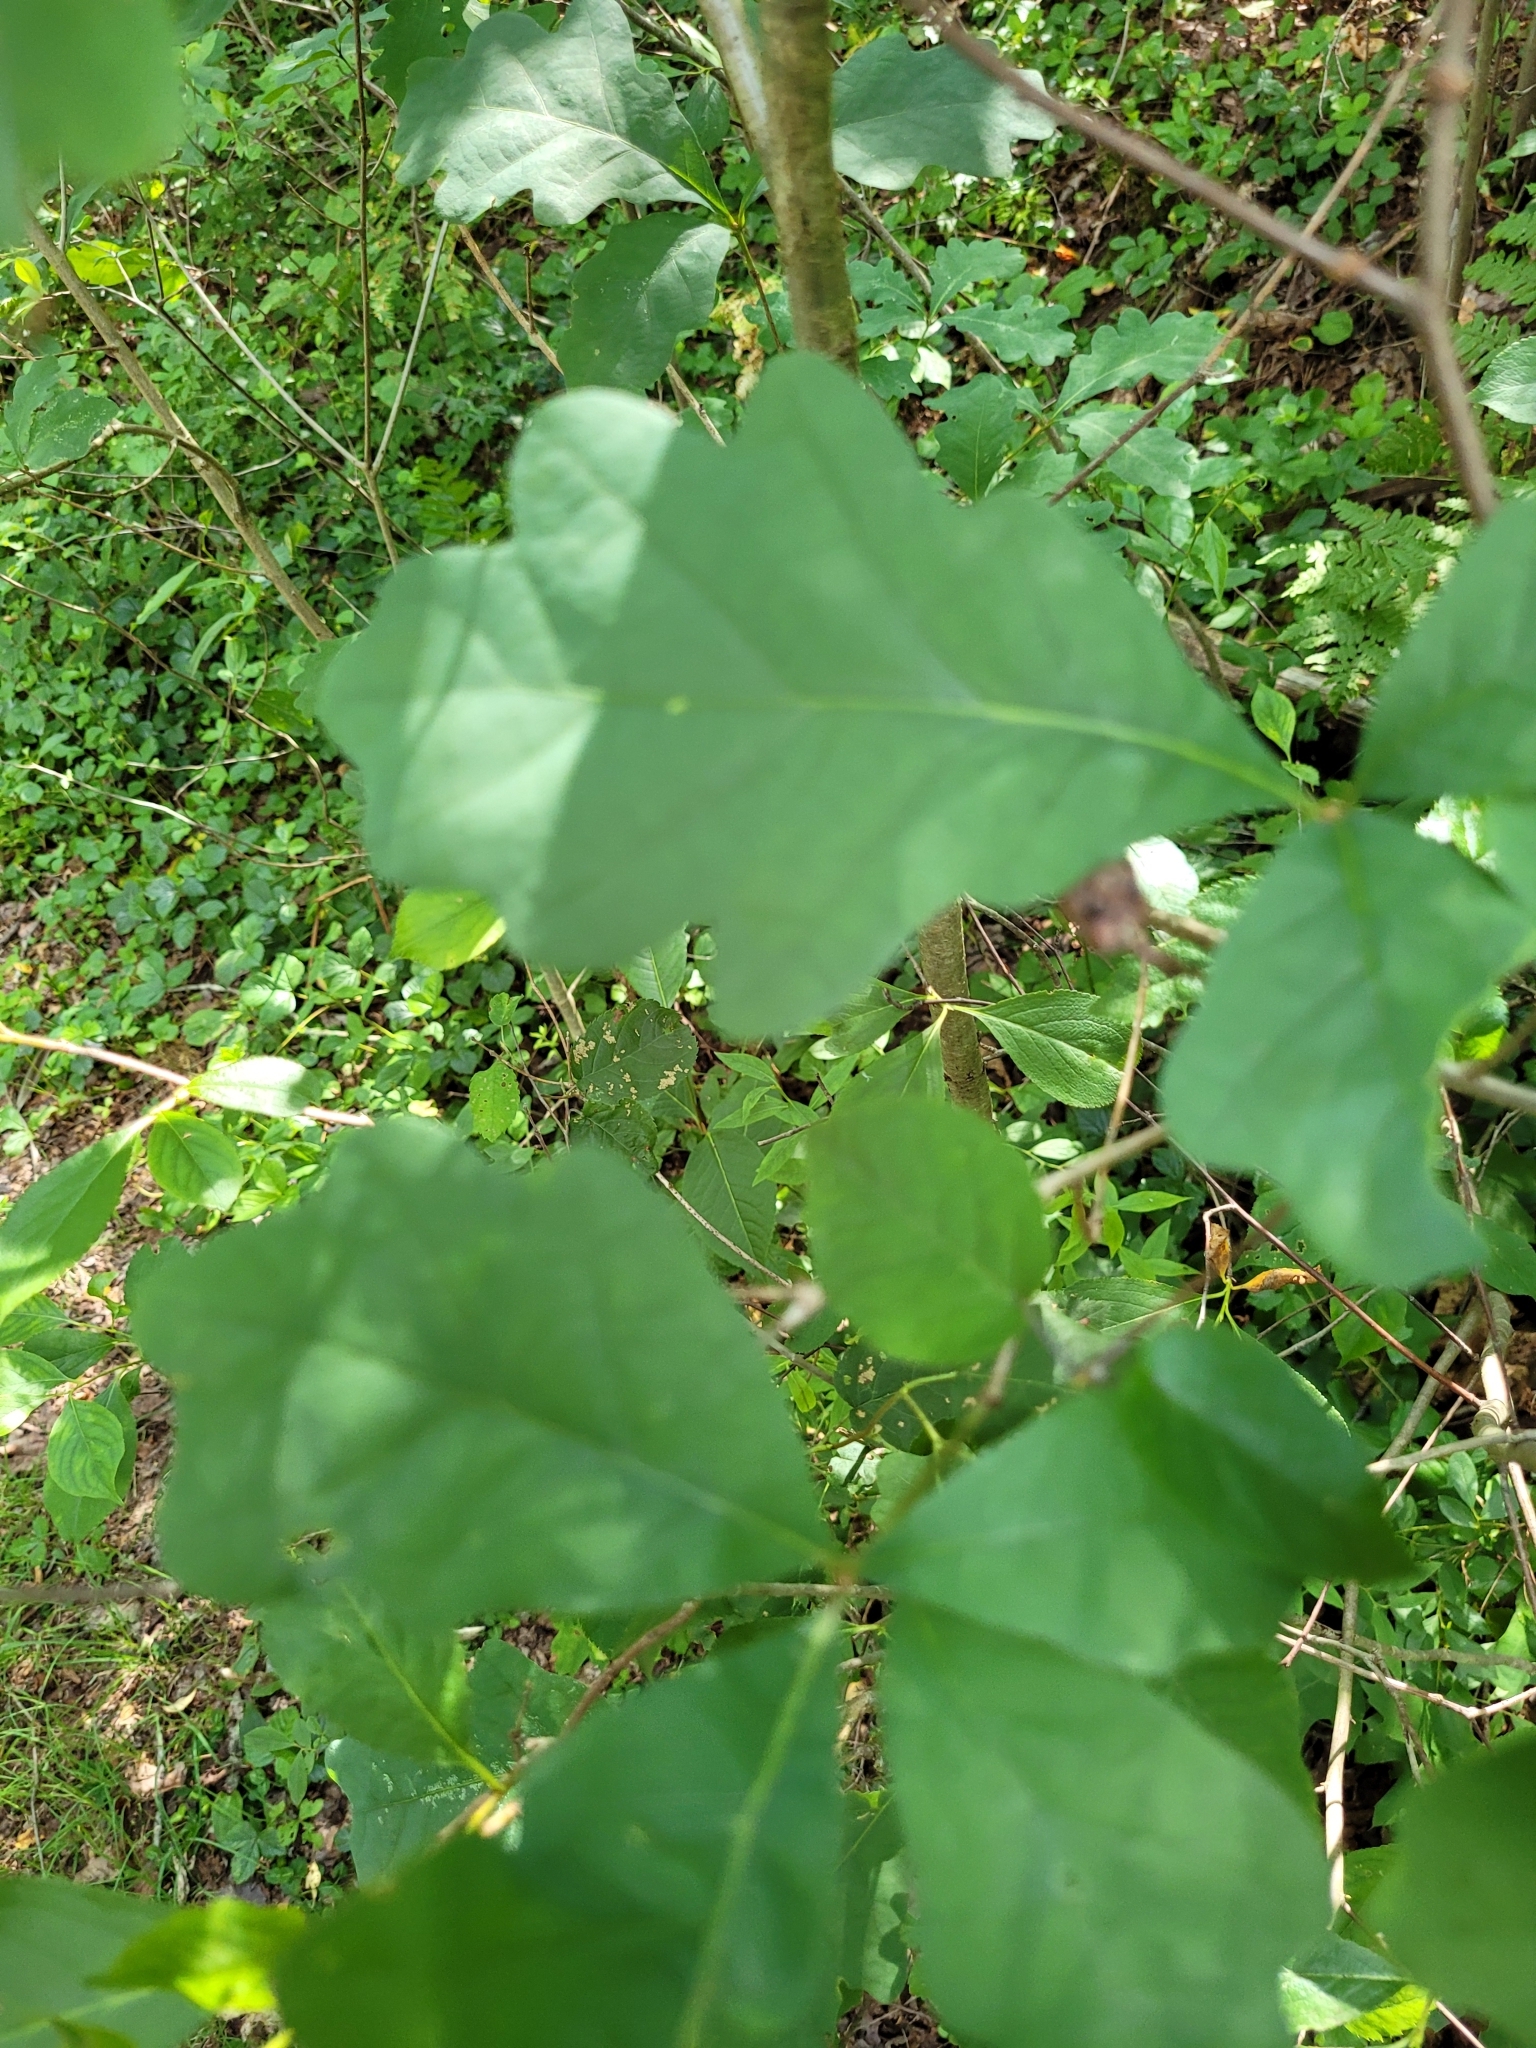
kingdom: Plantae
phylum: Tracheophyta
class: Magnoliopsida
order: Fagales
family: Fagaceae
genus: Quercus
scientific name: Quercus alba
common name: White oak
